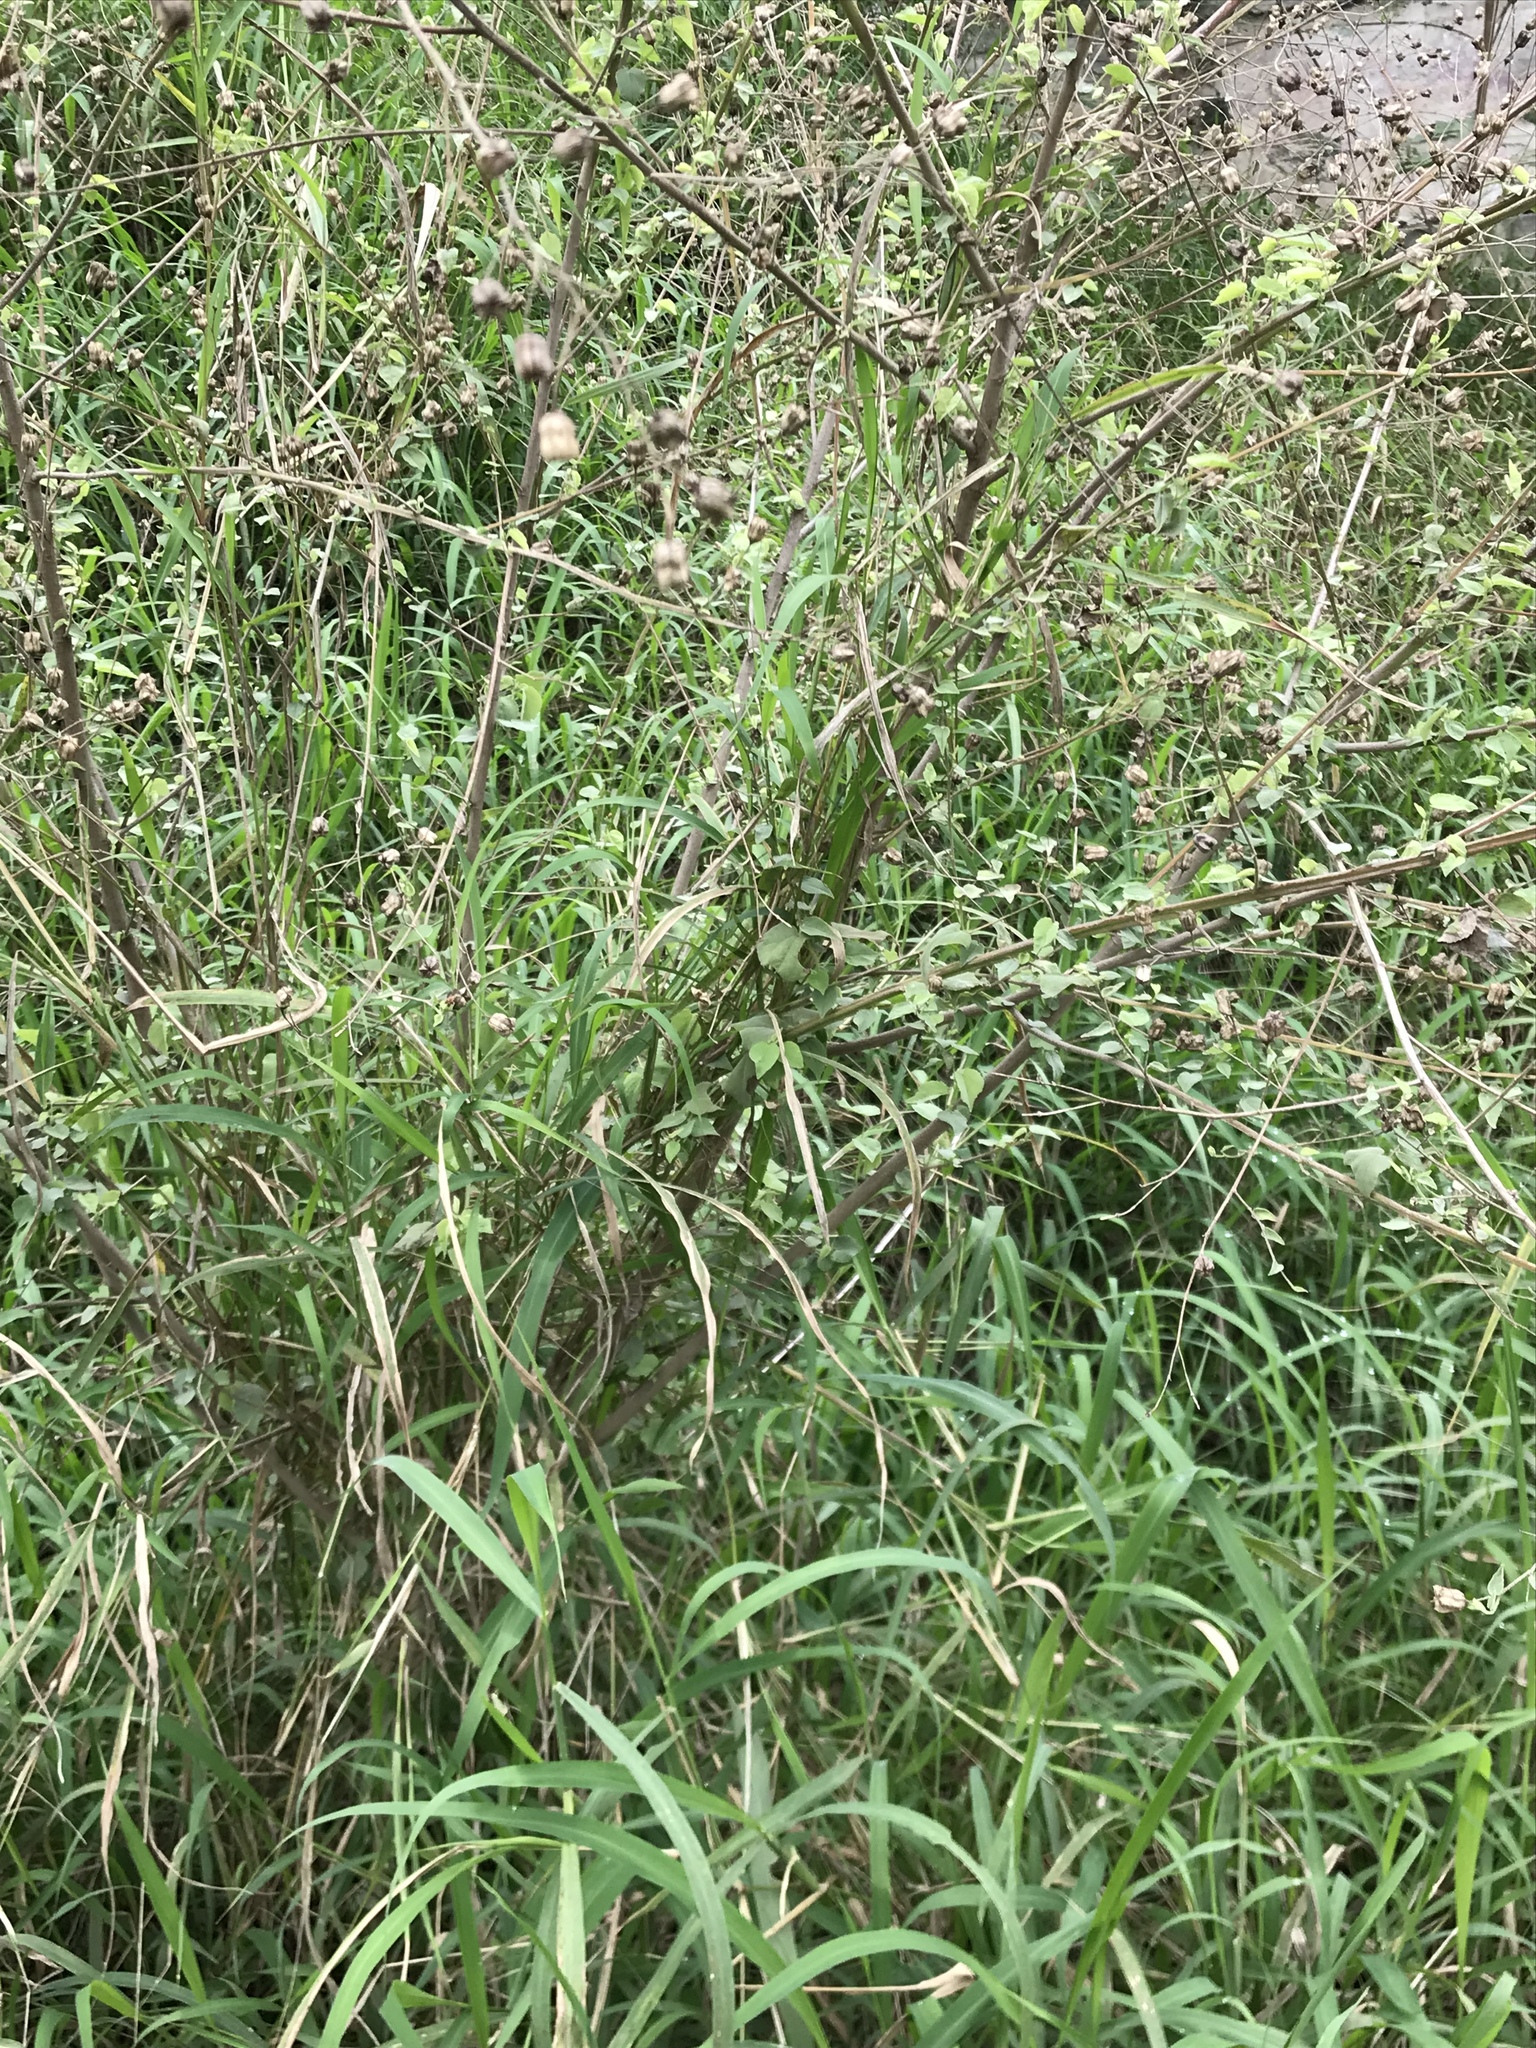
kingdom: Plantae
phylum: Tracheophyta
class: Magnoliopsida
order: Malvales
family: Malvaceae
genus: Abutilon
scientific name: Abutilon fruticosum
